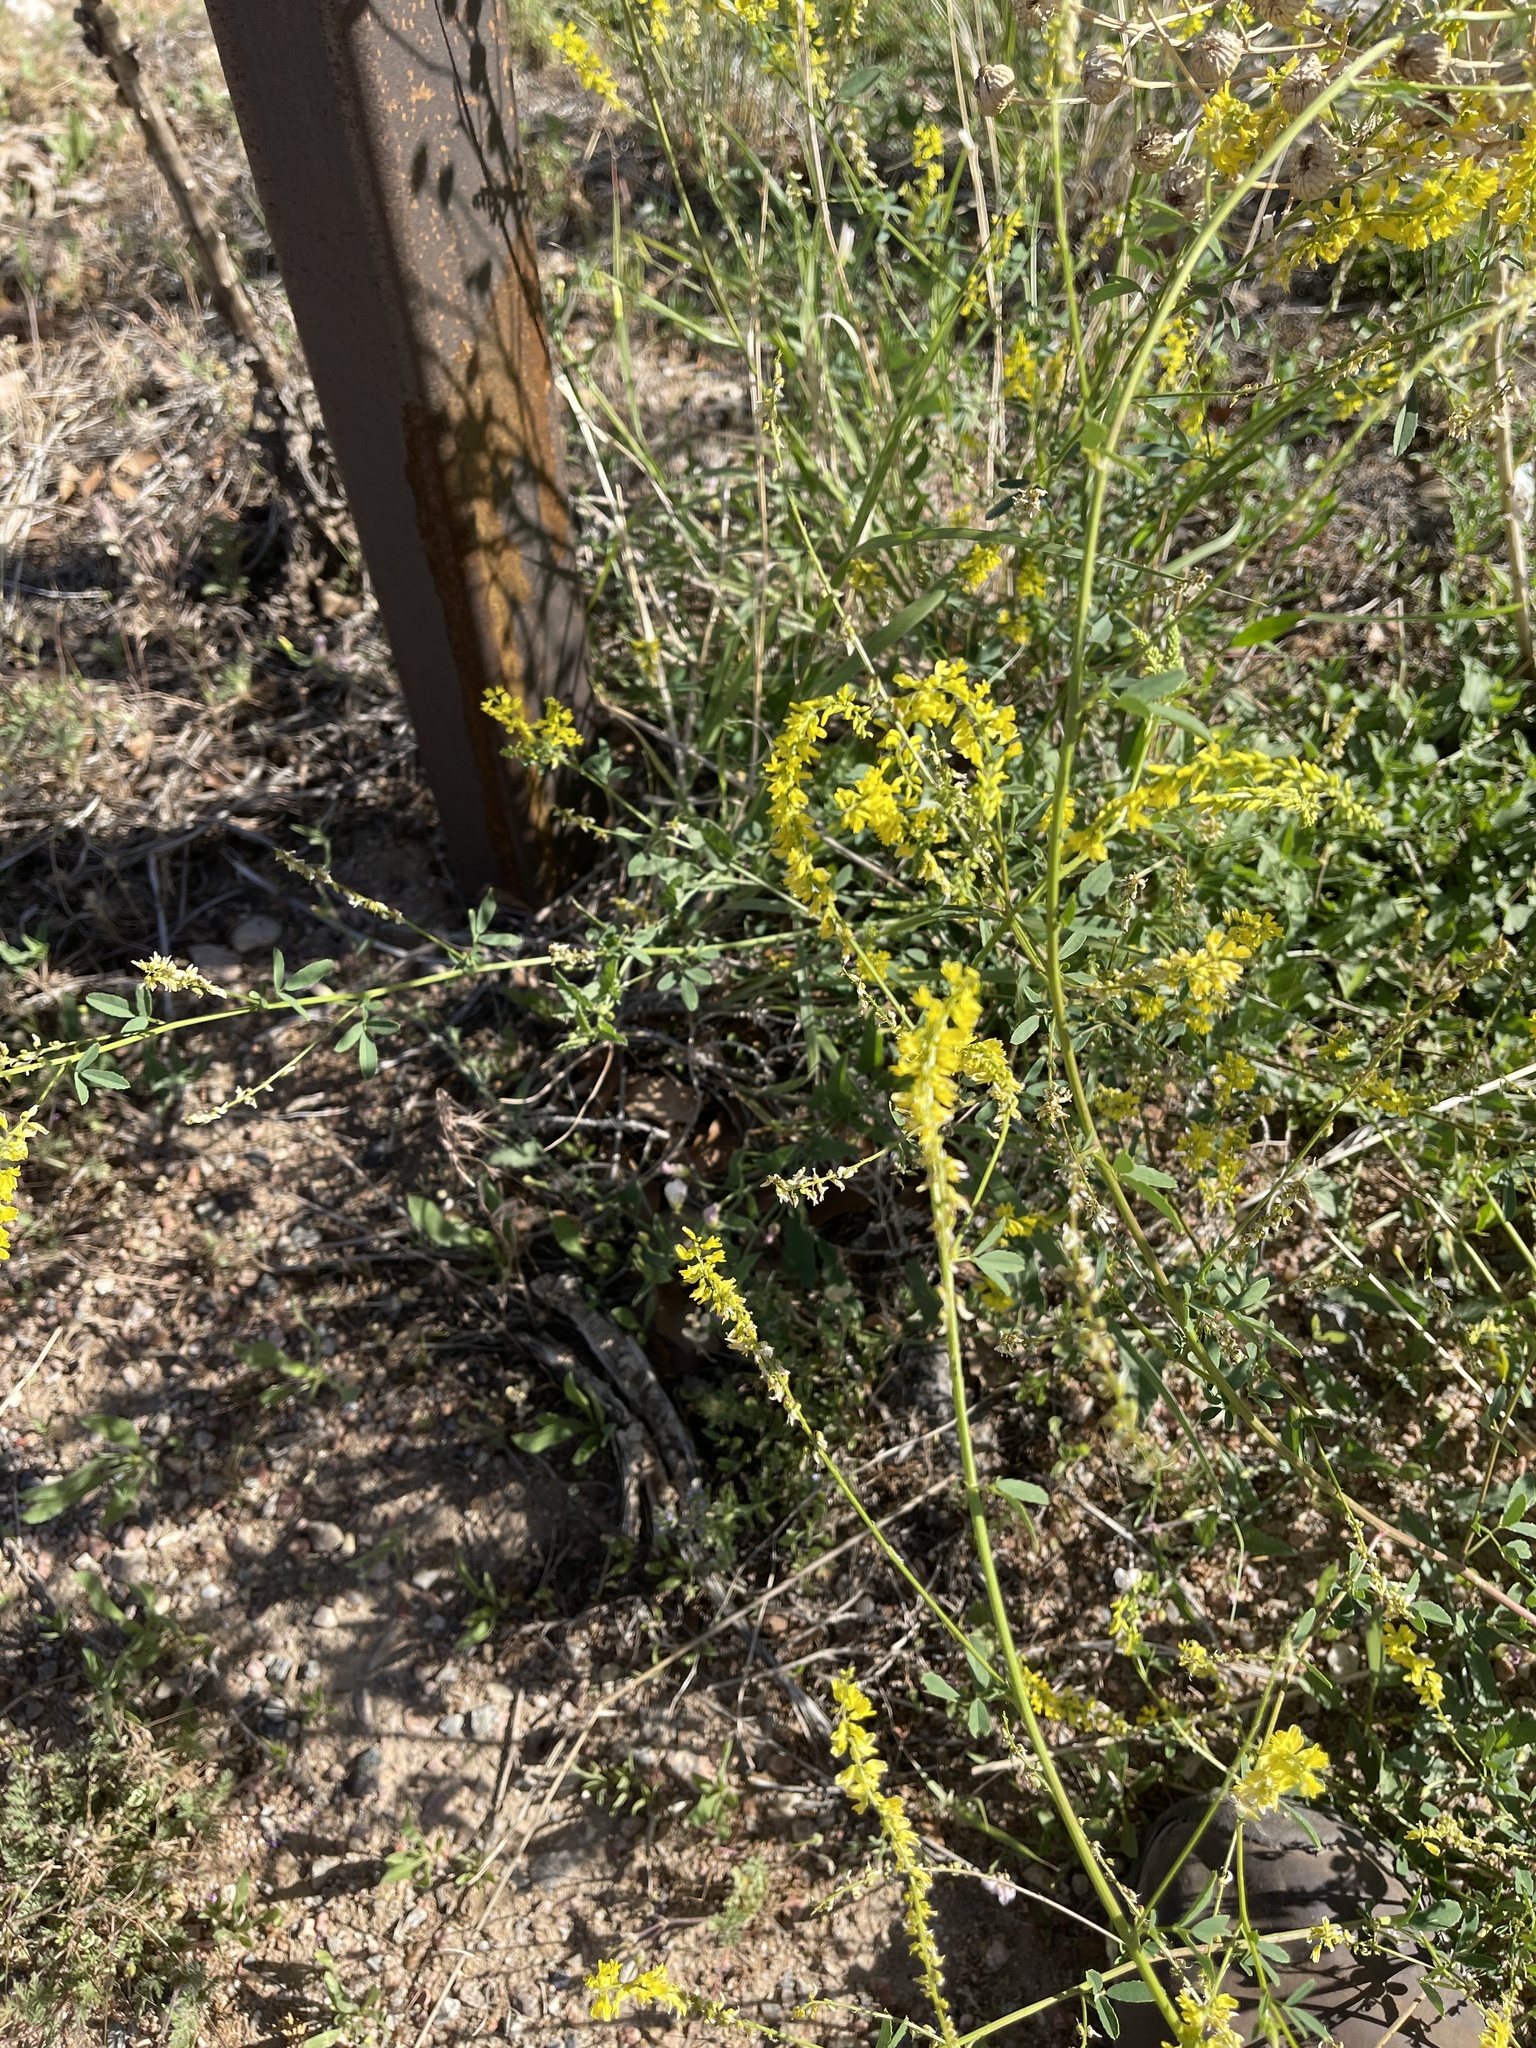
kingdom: Plantae
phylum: Tracheophyta
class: Magnoliopsida
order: Fabales
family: Fabaceae
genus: Melilotus
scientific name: Melilotus officinalis
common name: Sweetclover
